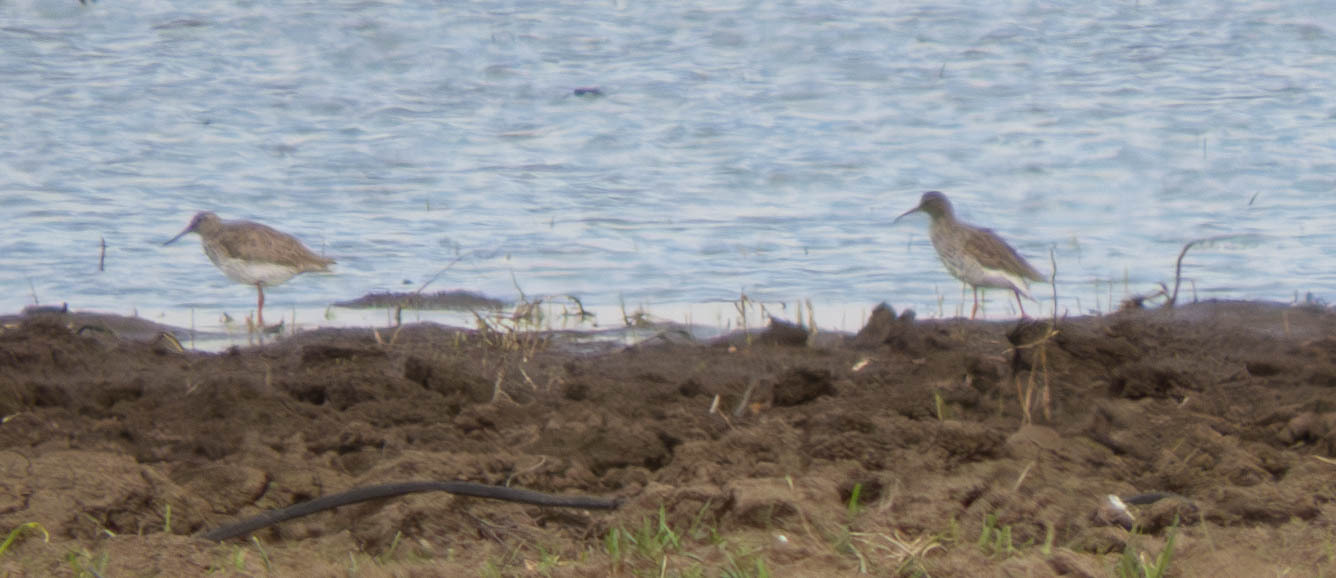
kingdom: Animalia
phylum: Chordata
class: Aves
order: Charadriiformes
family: Scolopacidae
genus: Tringa
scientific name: Tringa totanus
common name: Common redshank
